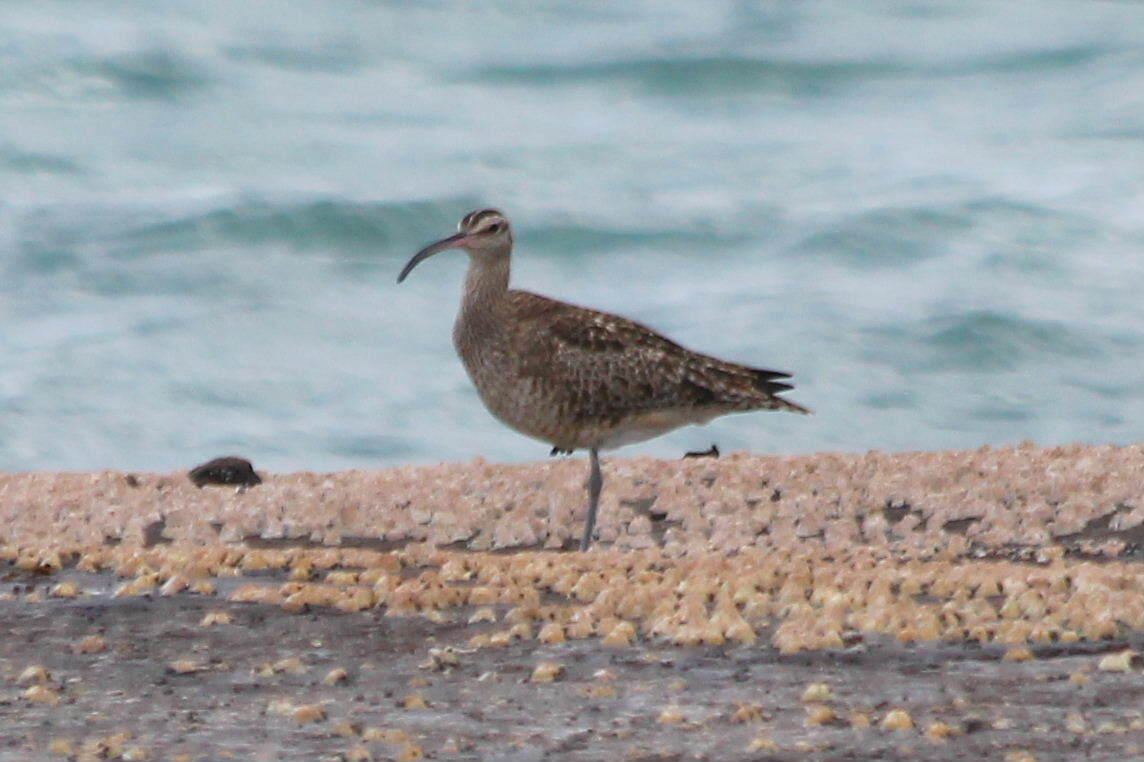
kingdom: Animalia
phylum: Chordata
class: Aves
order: Charadriiformes
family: Scolopacidae
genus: Numenius
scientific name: Numenius phaeopus
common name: Whimbrel
